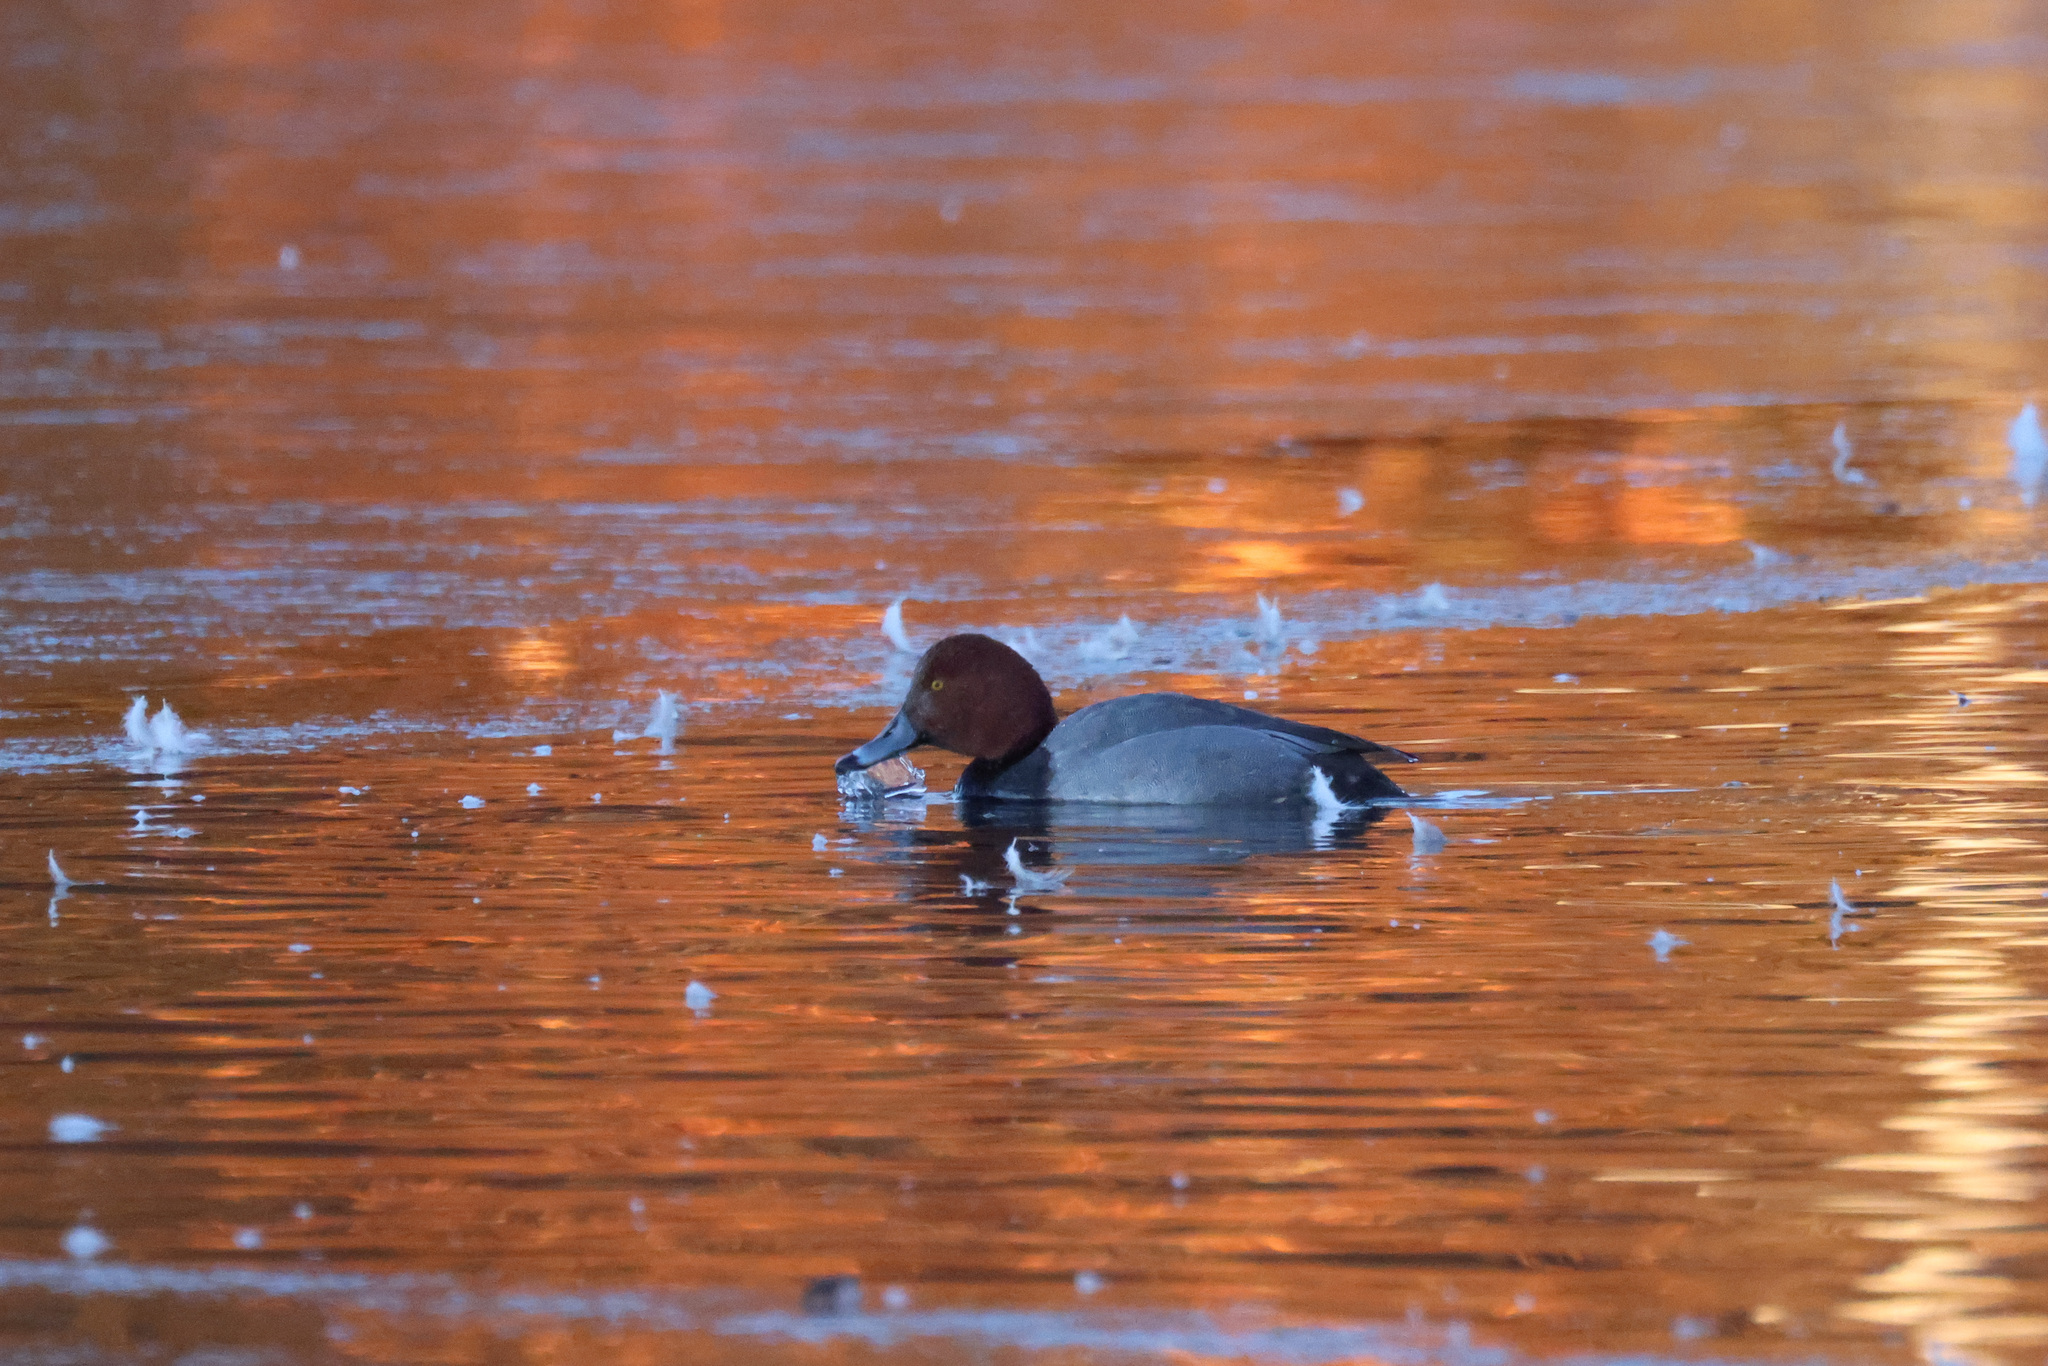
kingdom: Animalia
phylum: Chordata
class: Aves
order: Anseriformes
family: Anatidae
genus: Aythya
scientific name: Aythya americana
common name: Redhead
